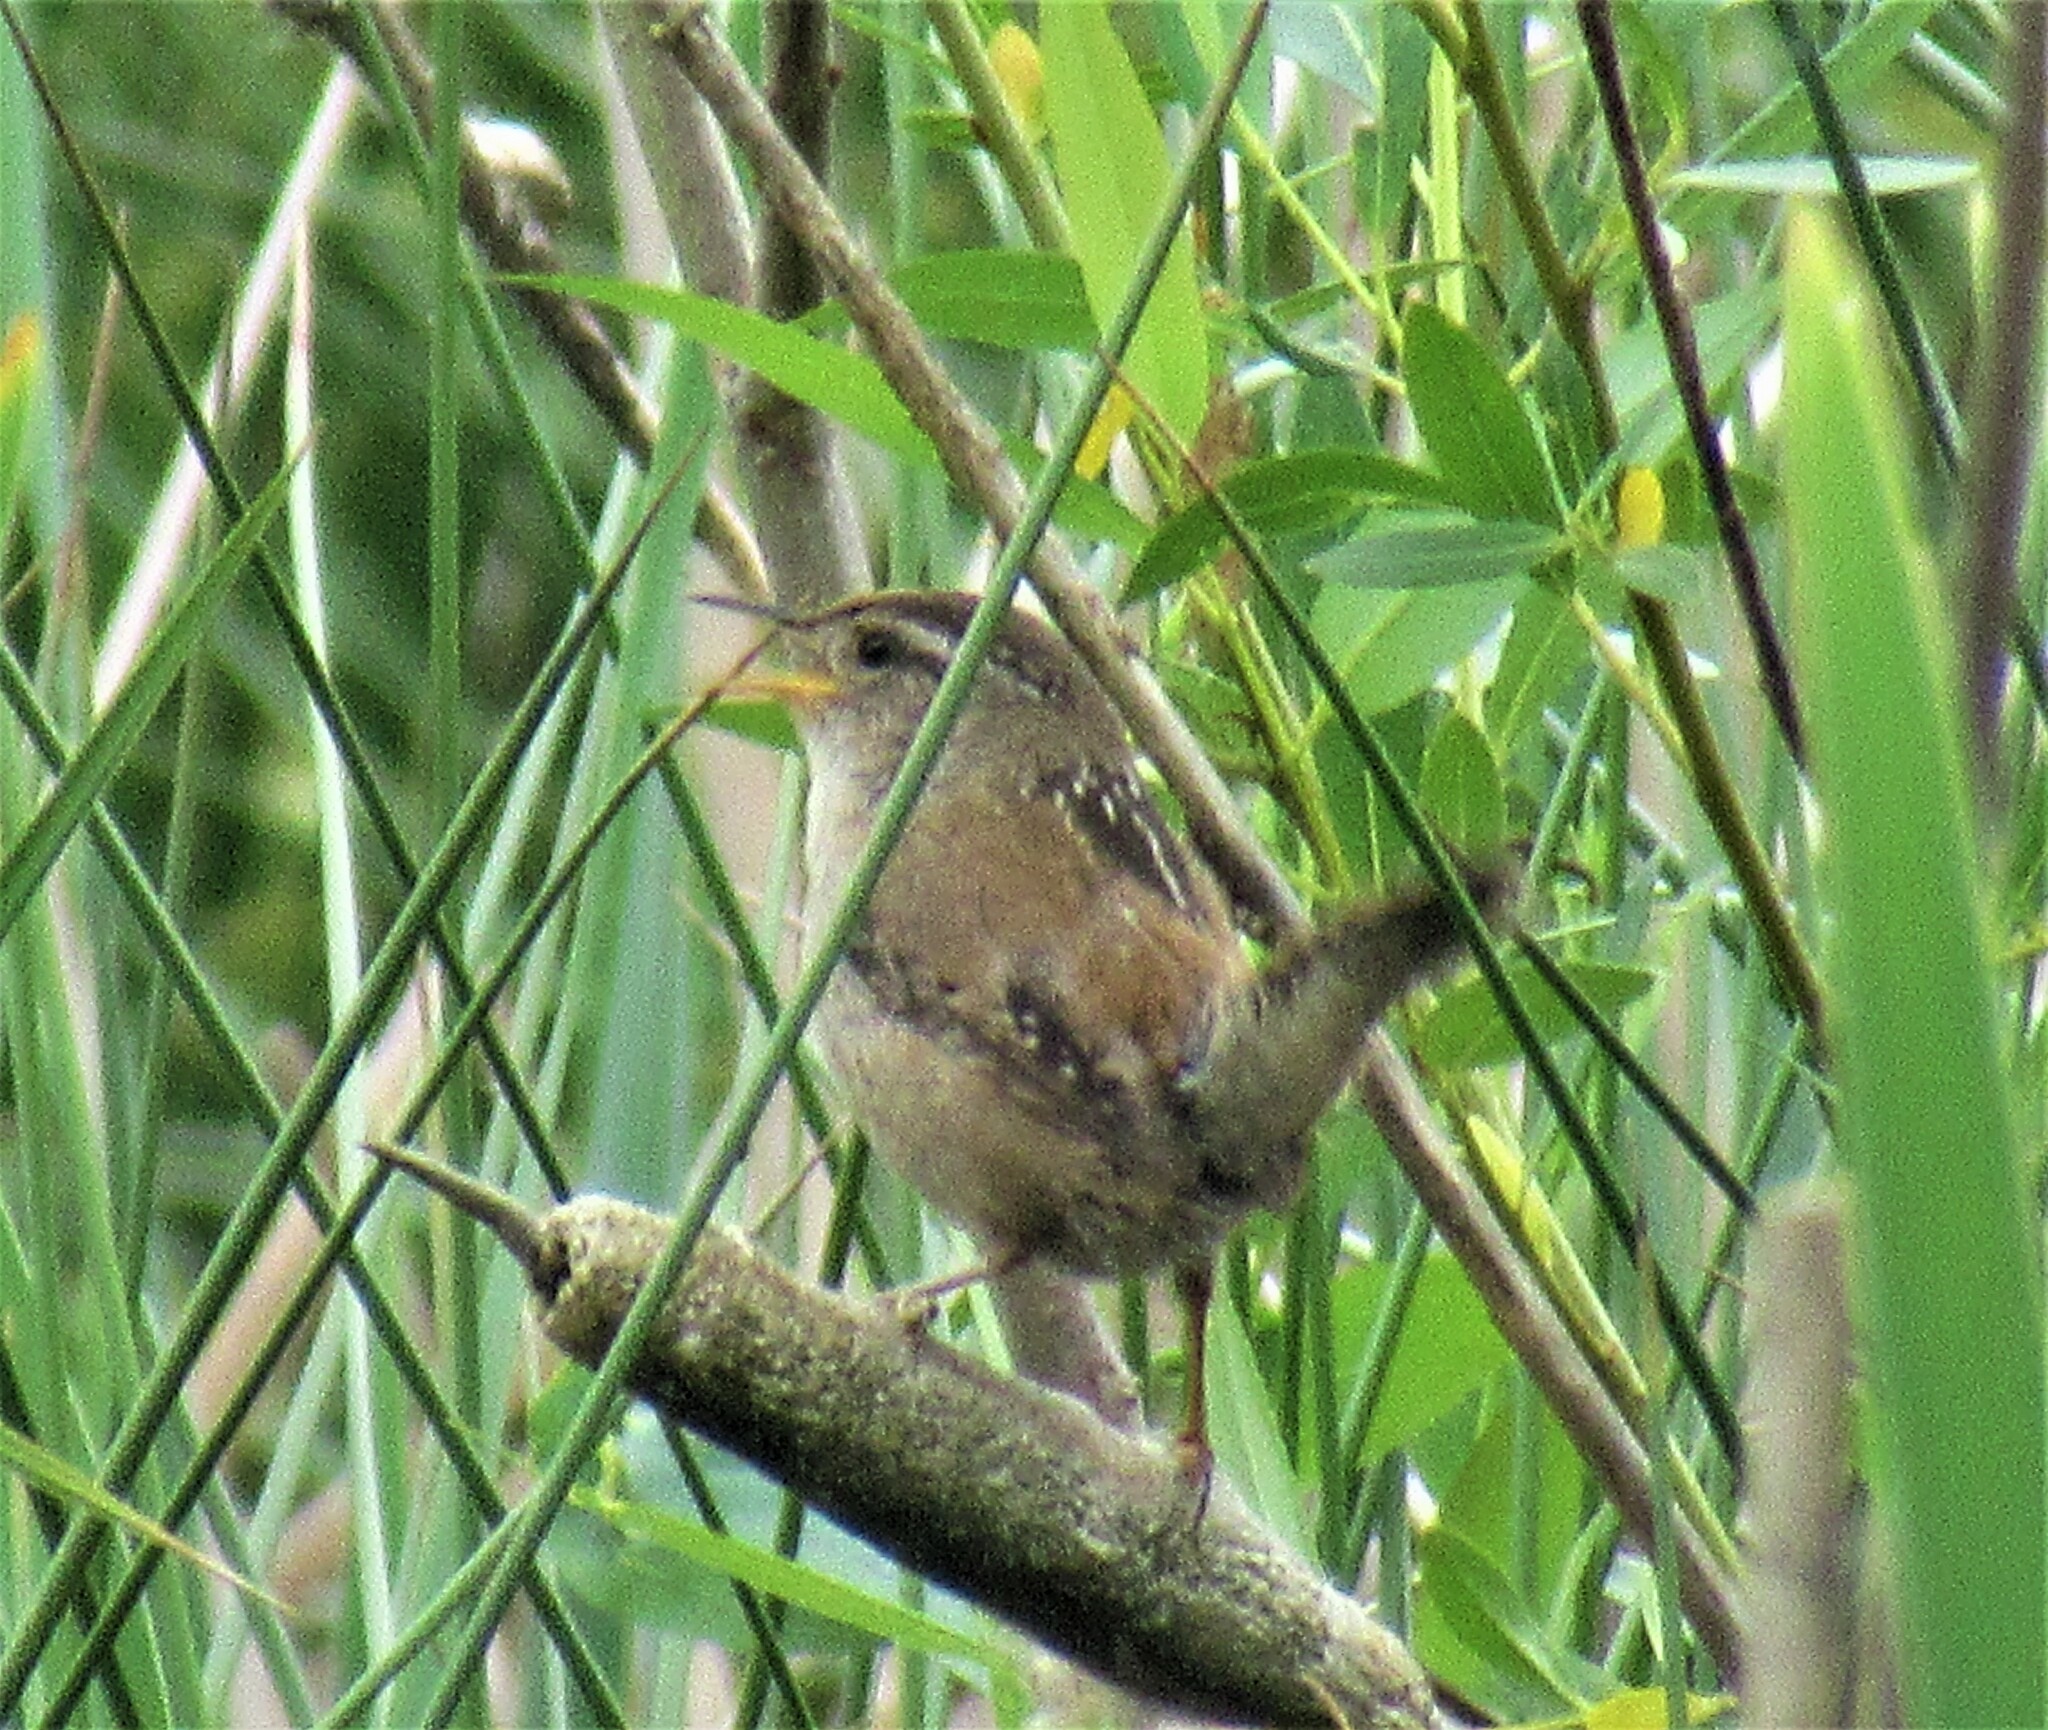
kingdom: Animalia
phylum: Chordata
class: Aves
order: Passeriformes
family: Troglodytidae
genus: Cistothorus
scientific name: Cistothorus palustris
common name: Marsh wren
